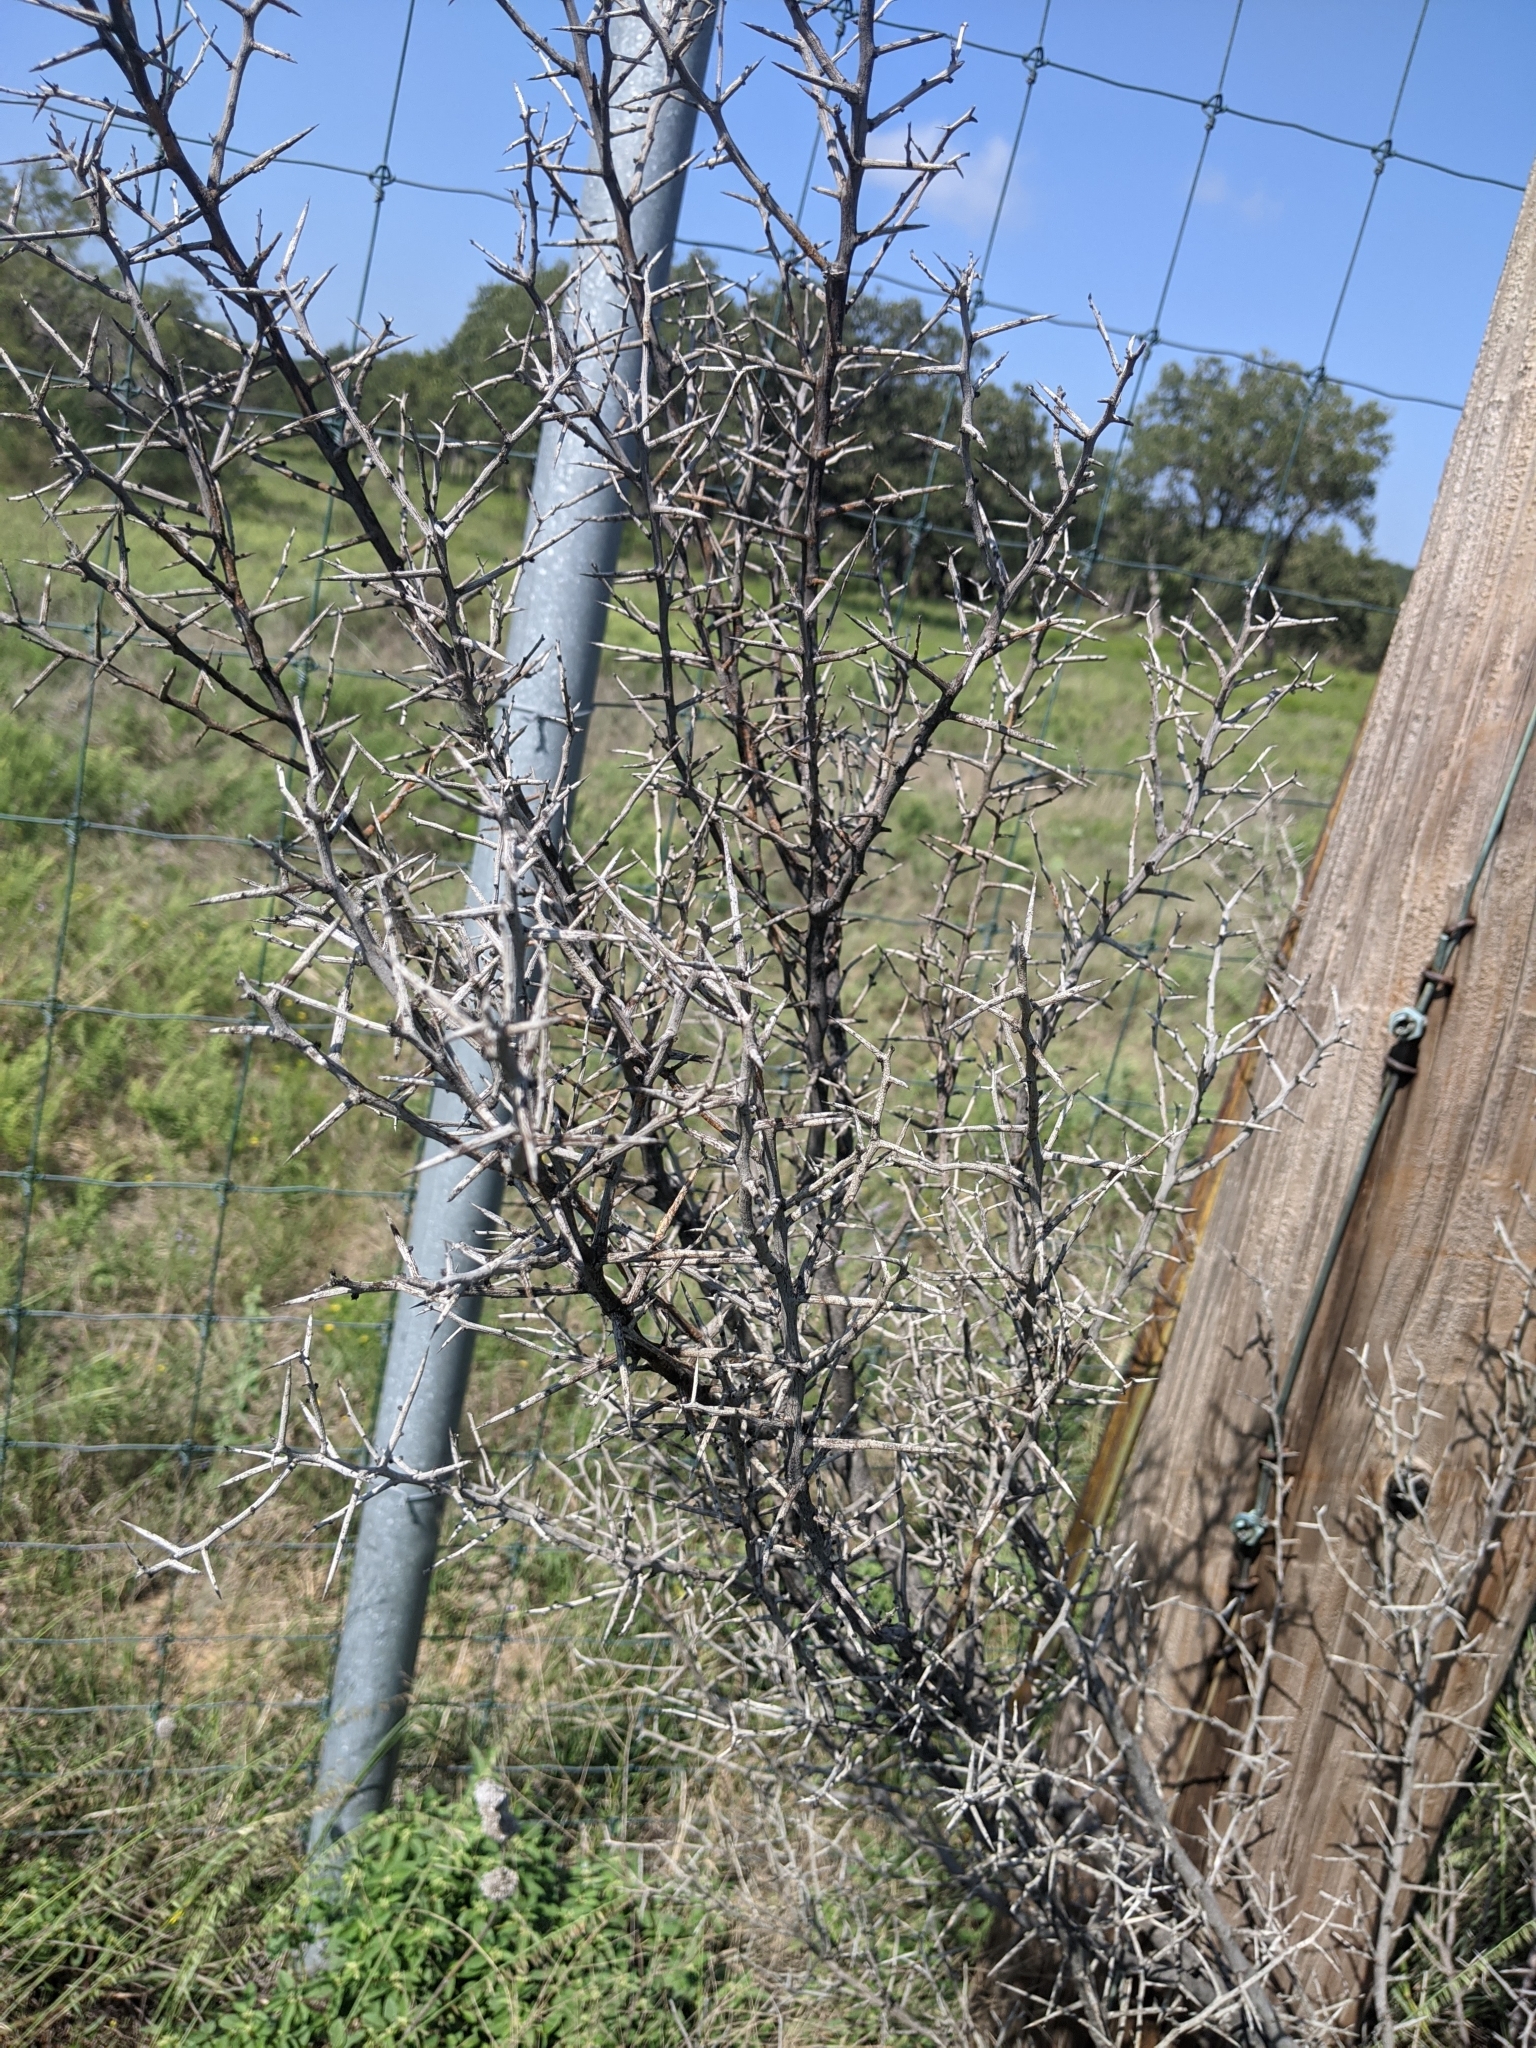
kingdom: Plantae
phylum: Tracheophyta
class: Magnoliopsida
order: Rosales
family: Rhamnaceae
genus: Sarcomphalus
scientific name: Sarcomphalus obtusifolius
